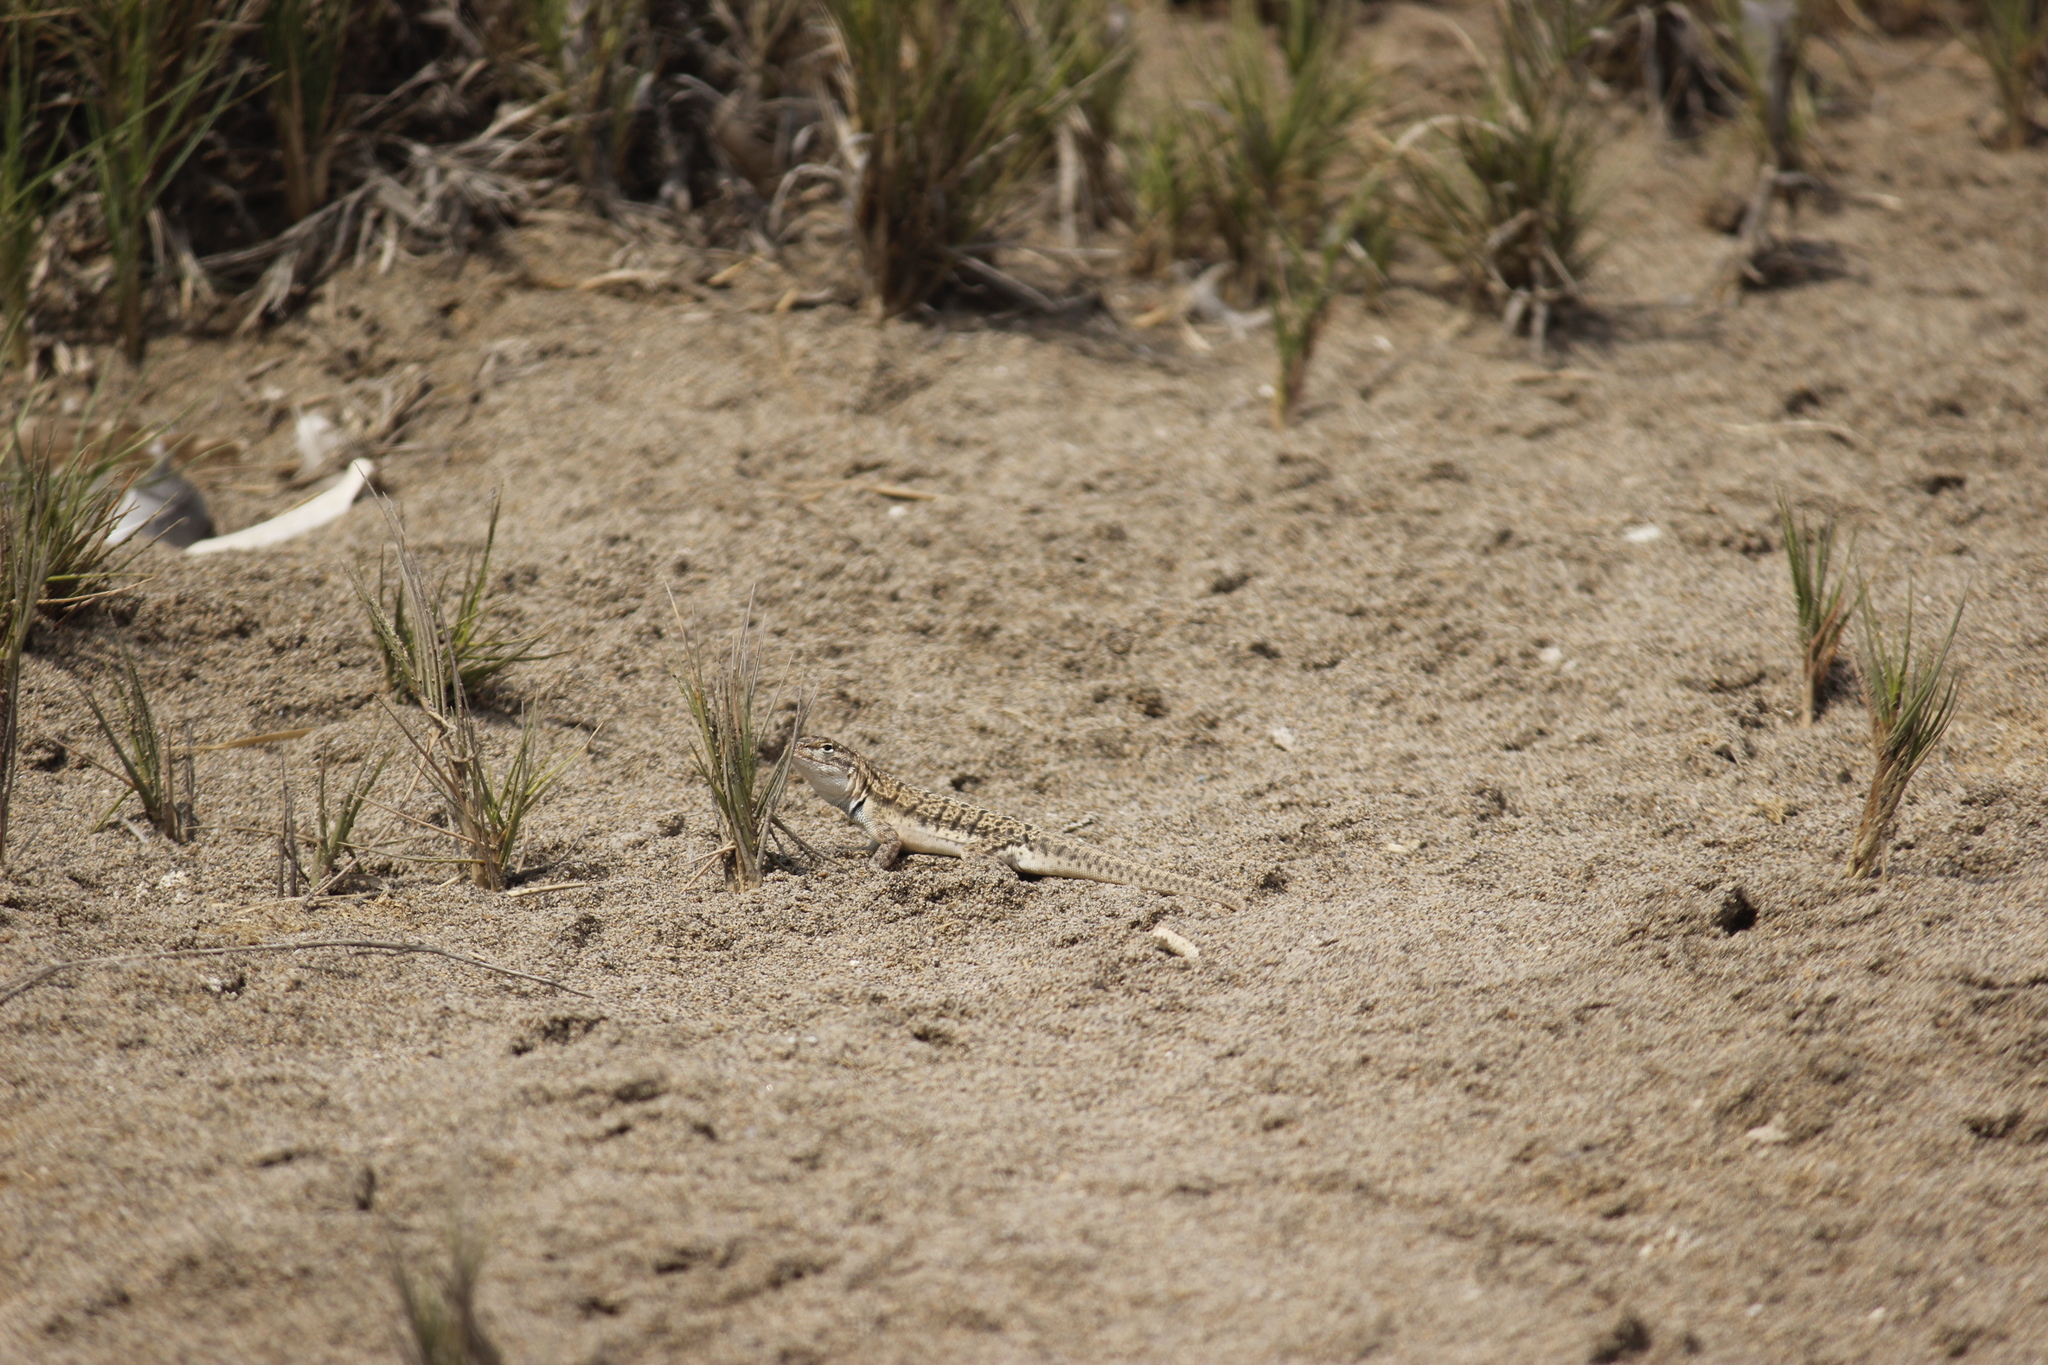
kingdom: Animalia
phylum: Chordata
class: Squamata
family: Tropiduridae
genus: Microlophus
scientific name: Microlophus peruvianus
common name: Peru pacific iguana
